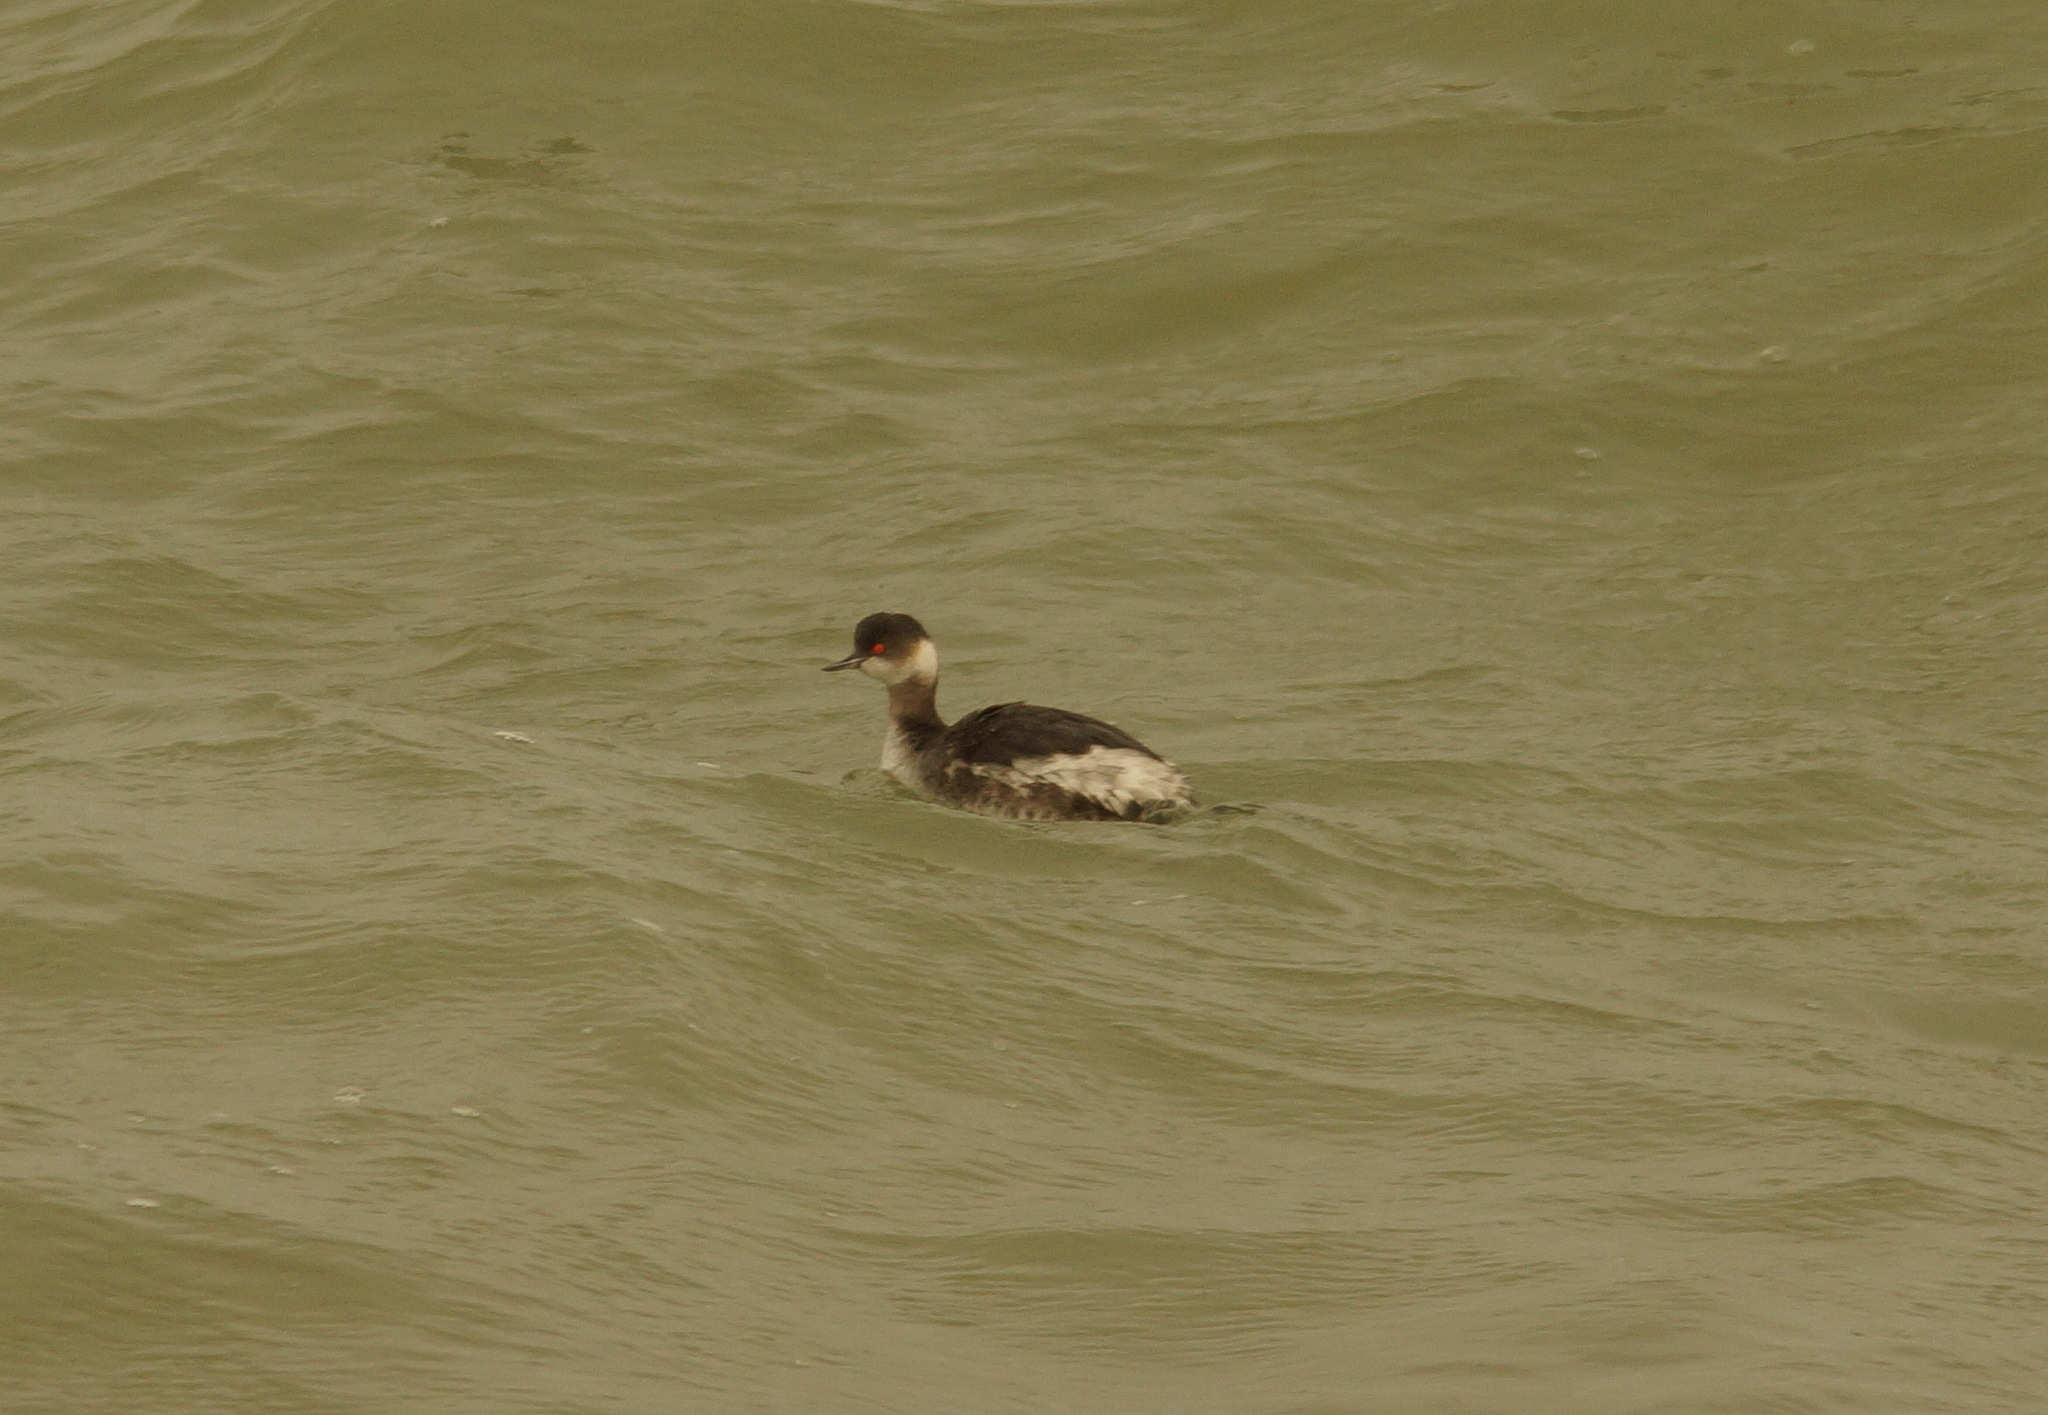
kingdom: Animalia
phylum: Chordata
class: Aves
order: Podicipediformes
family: Podicipedidae
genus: Podiceps
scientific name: Podiceps nigricollis
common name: Black-necked grebe
